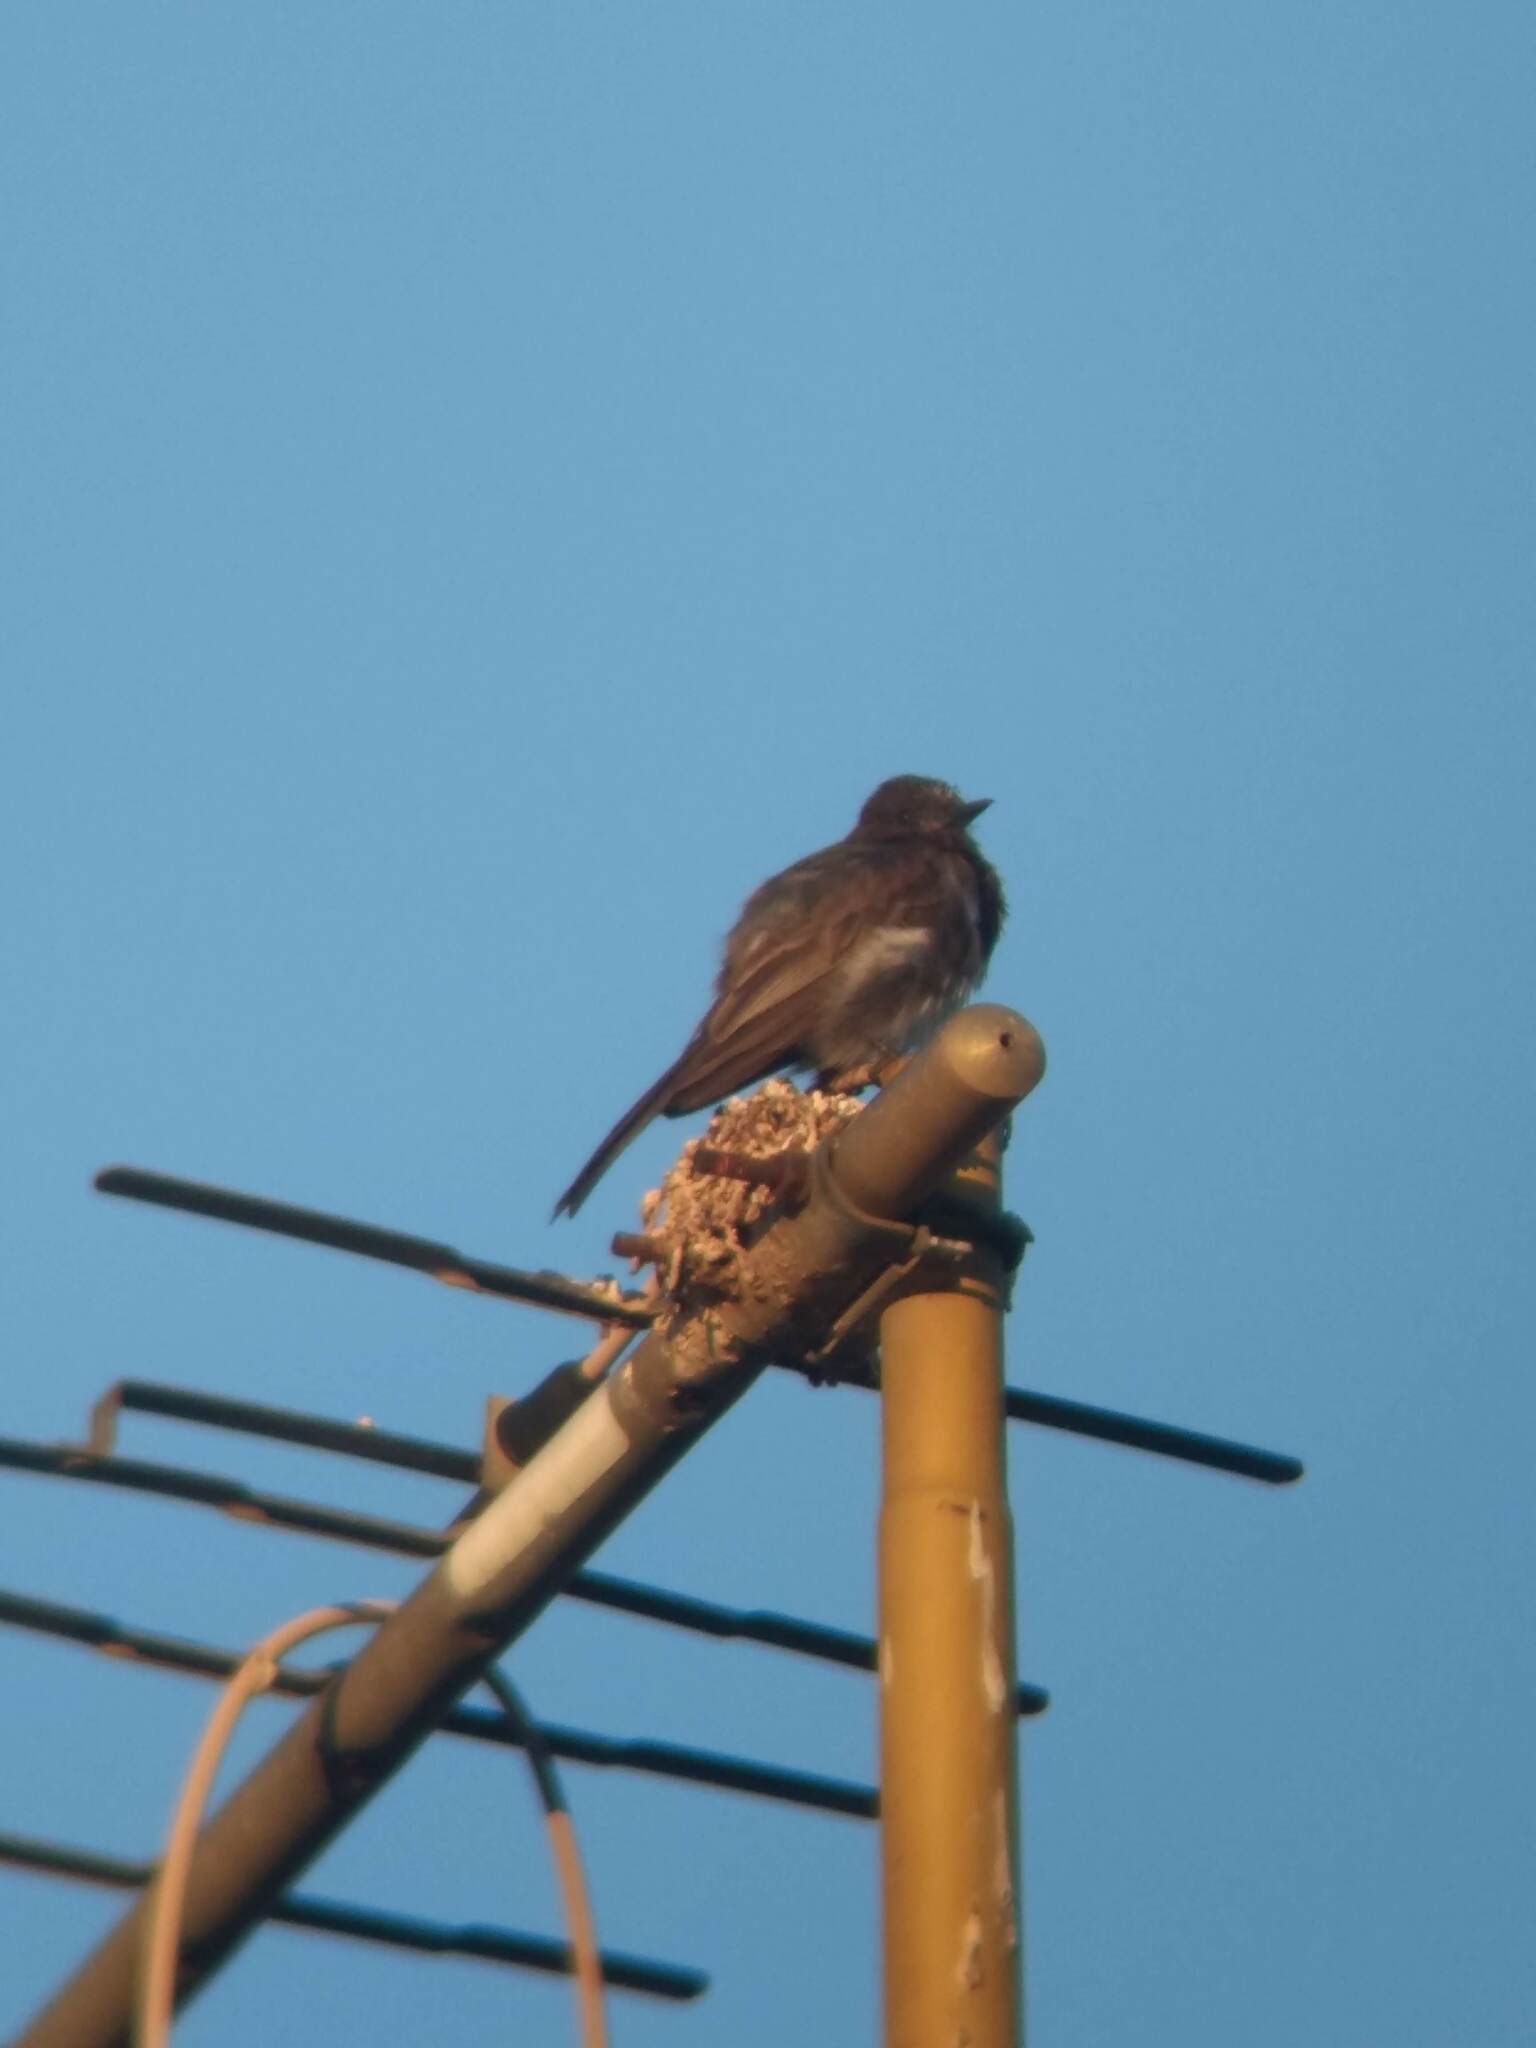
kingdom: Animalia
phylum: Chordata
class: Aves
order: Passeriformes
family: Tyrannidae
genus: Sayornis
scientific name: Sayornis nigricans
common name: Black phoebe
